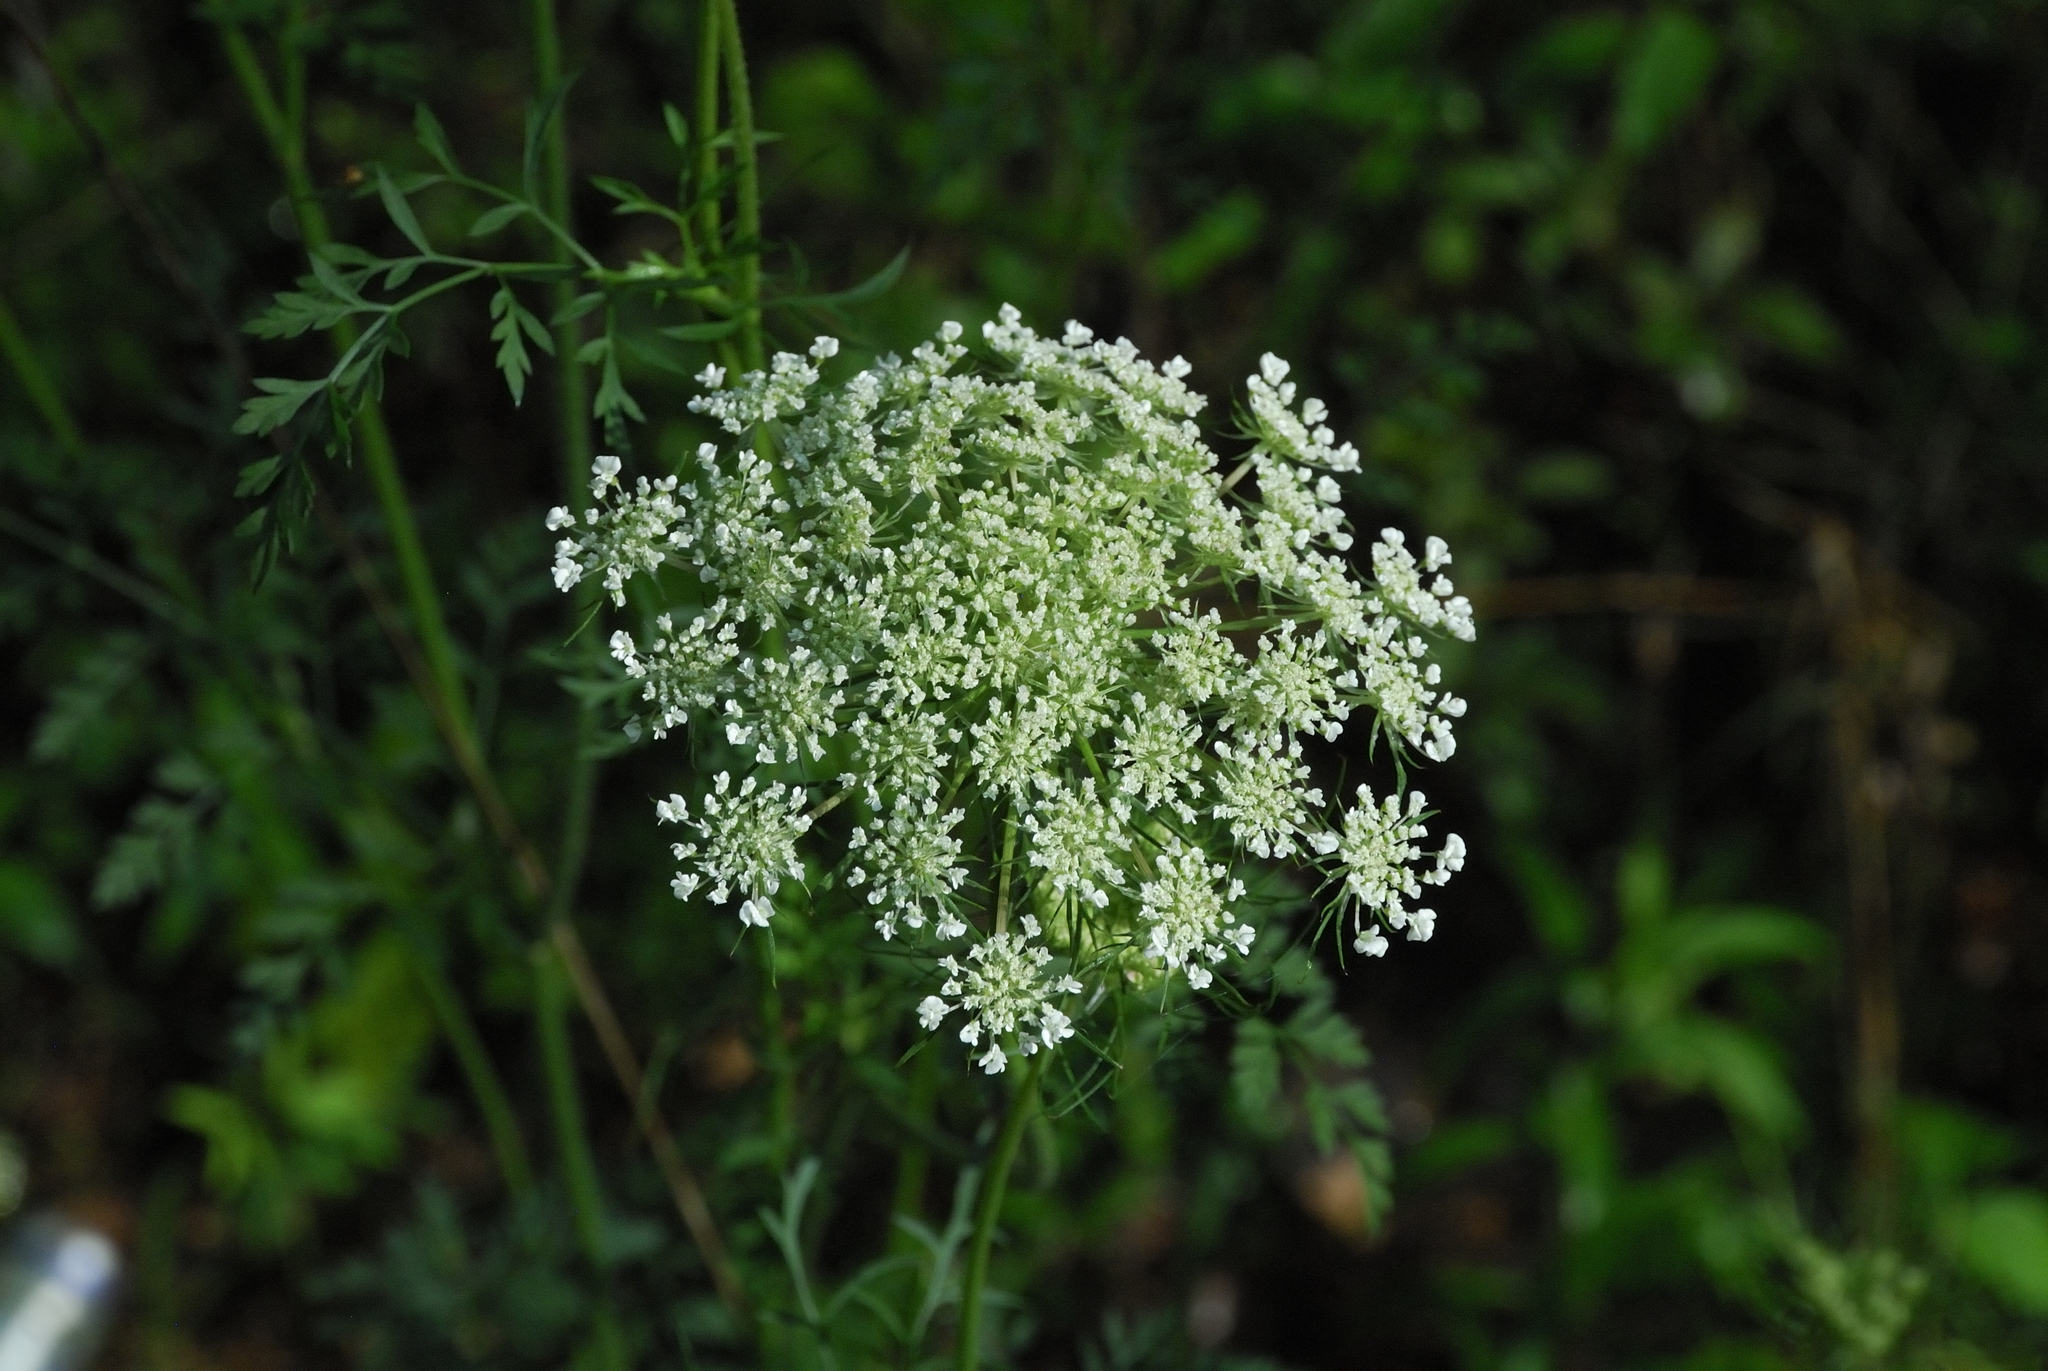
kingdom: Plantae
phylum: Tracheophyta
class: Magnoliopsida
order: Apiales
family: Apiaceae
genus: Daucus
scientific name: Daucus carota
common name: Wild carrot
